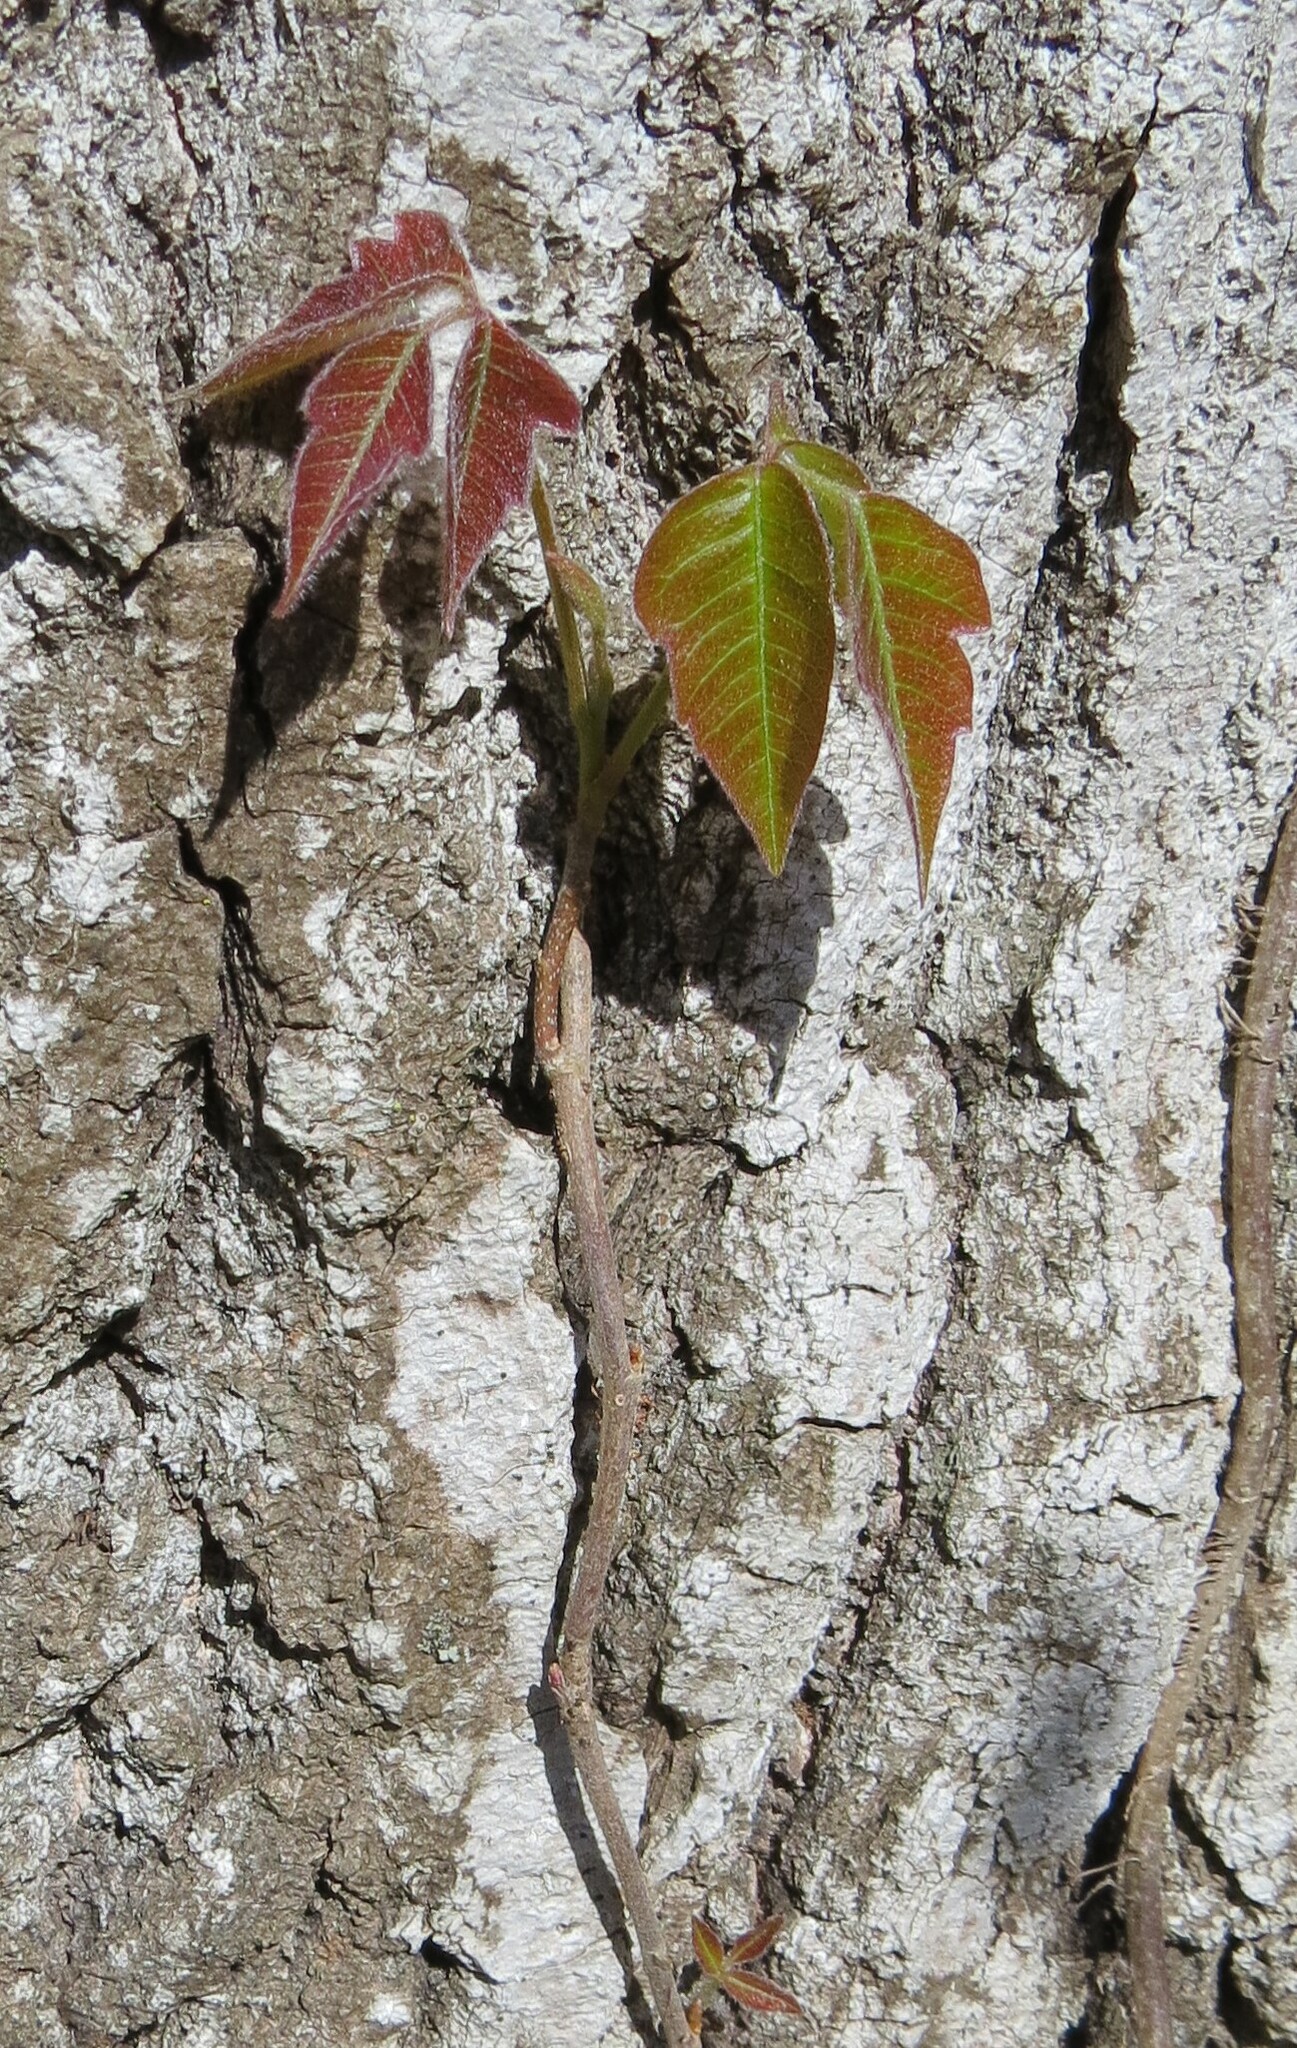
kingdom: Plantae
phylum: Tracheophyta
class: Magnoliopsida
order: Sapindales
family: Anacardiaceae
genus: Toxicodendron
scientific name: Toxicodendron radicans
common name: Poison ivy
